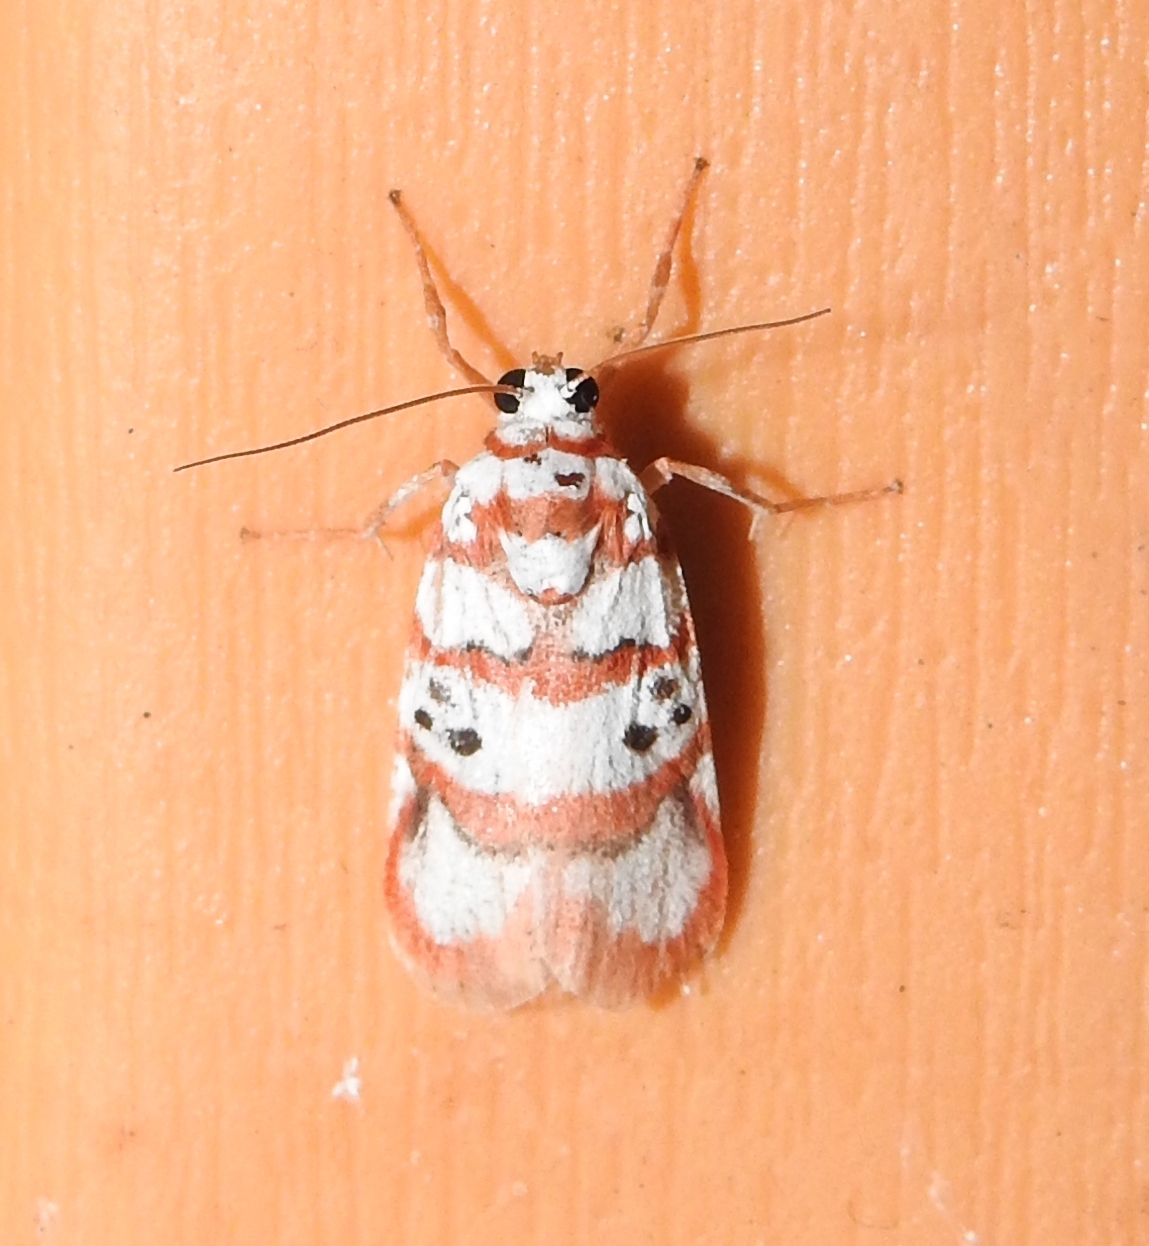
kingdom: Animalia
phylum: Arthropoda
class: Insecta
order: Lepidoptera
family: Erebidae
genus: Cyana
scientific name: Cyana bhatejai
